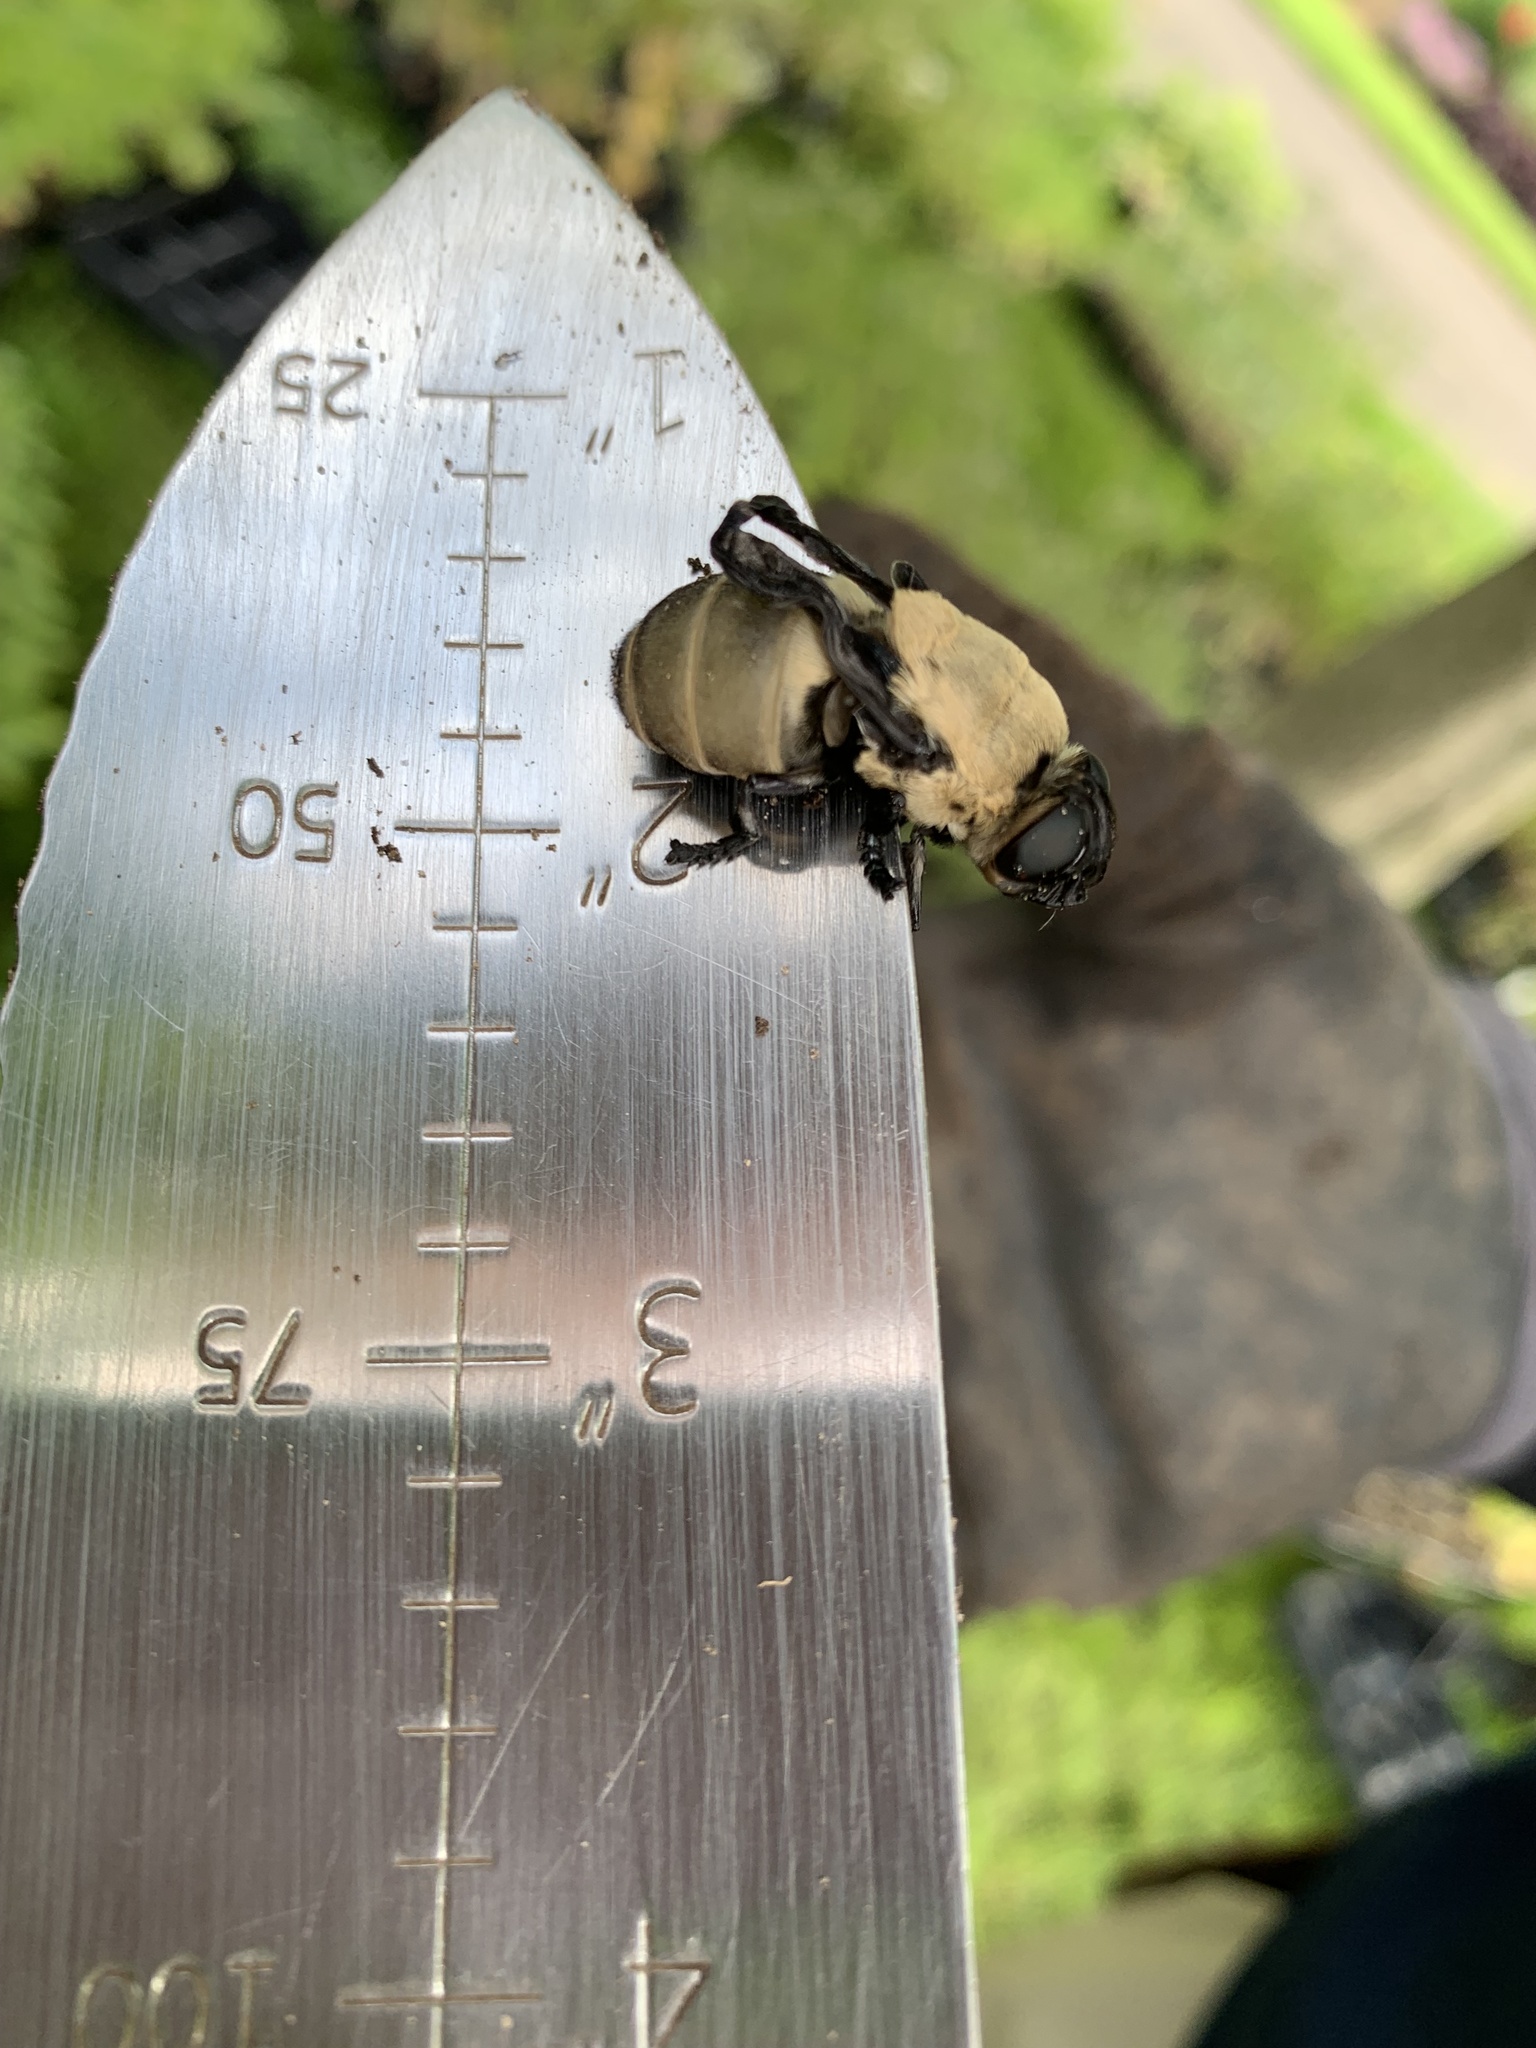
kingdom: Animalia
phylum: Arthropoda
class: Insecta
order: Diptera
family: Oestridae
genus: Cuterebra
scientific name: Cuterebra abdominalis
